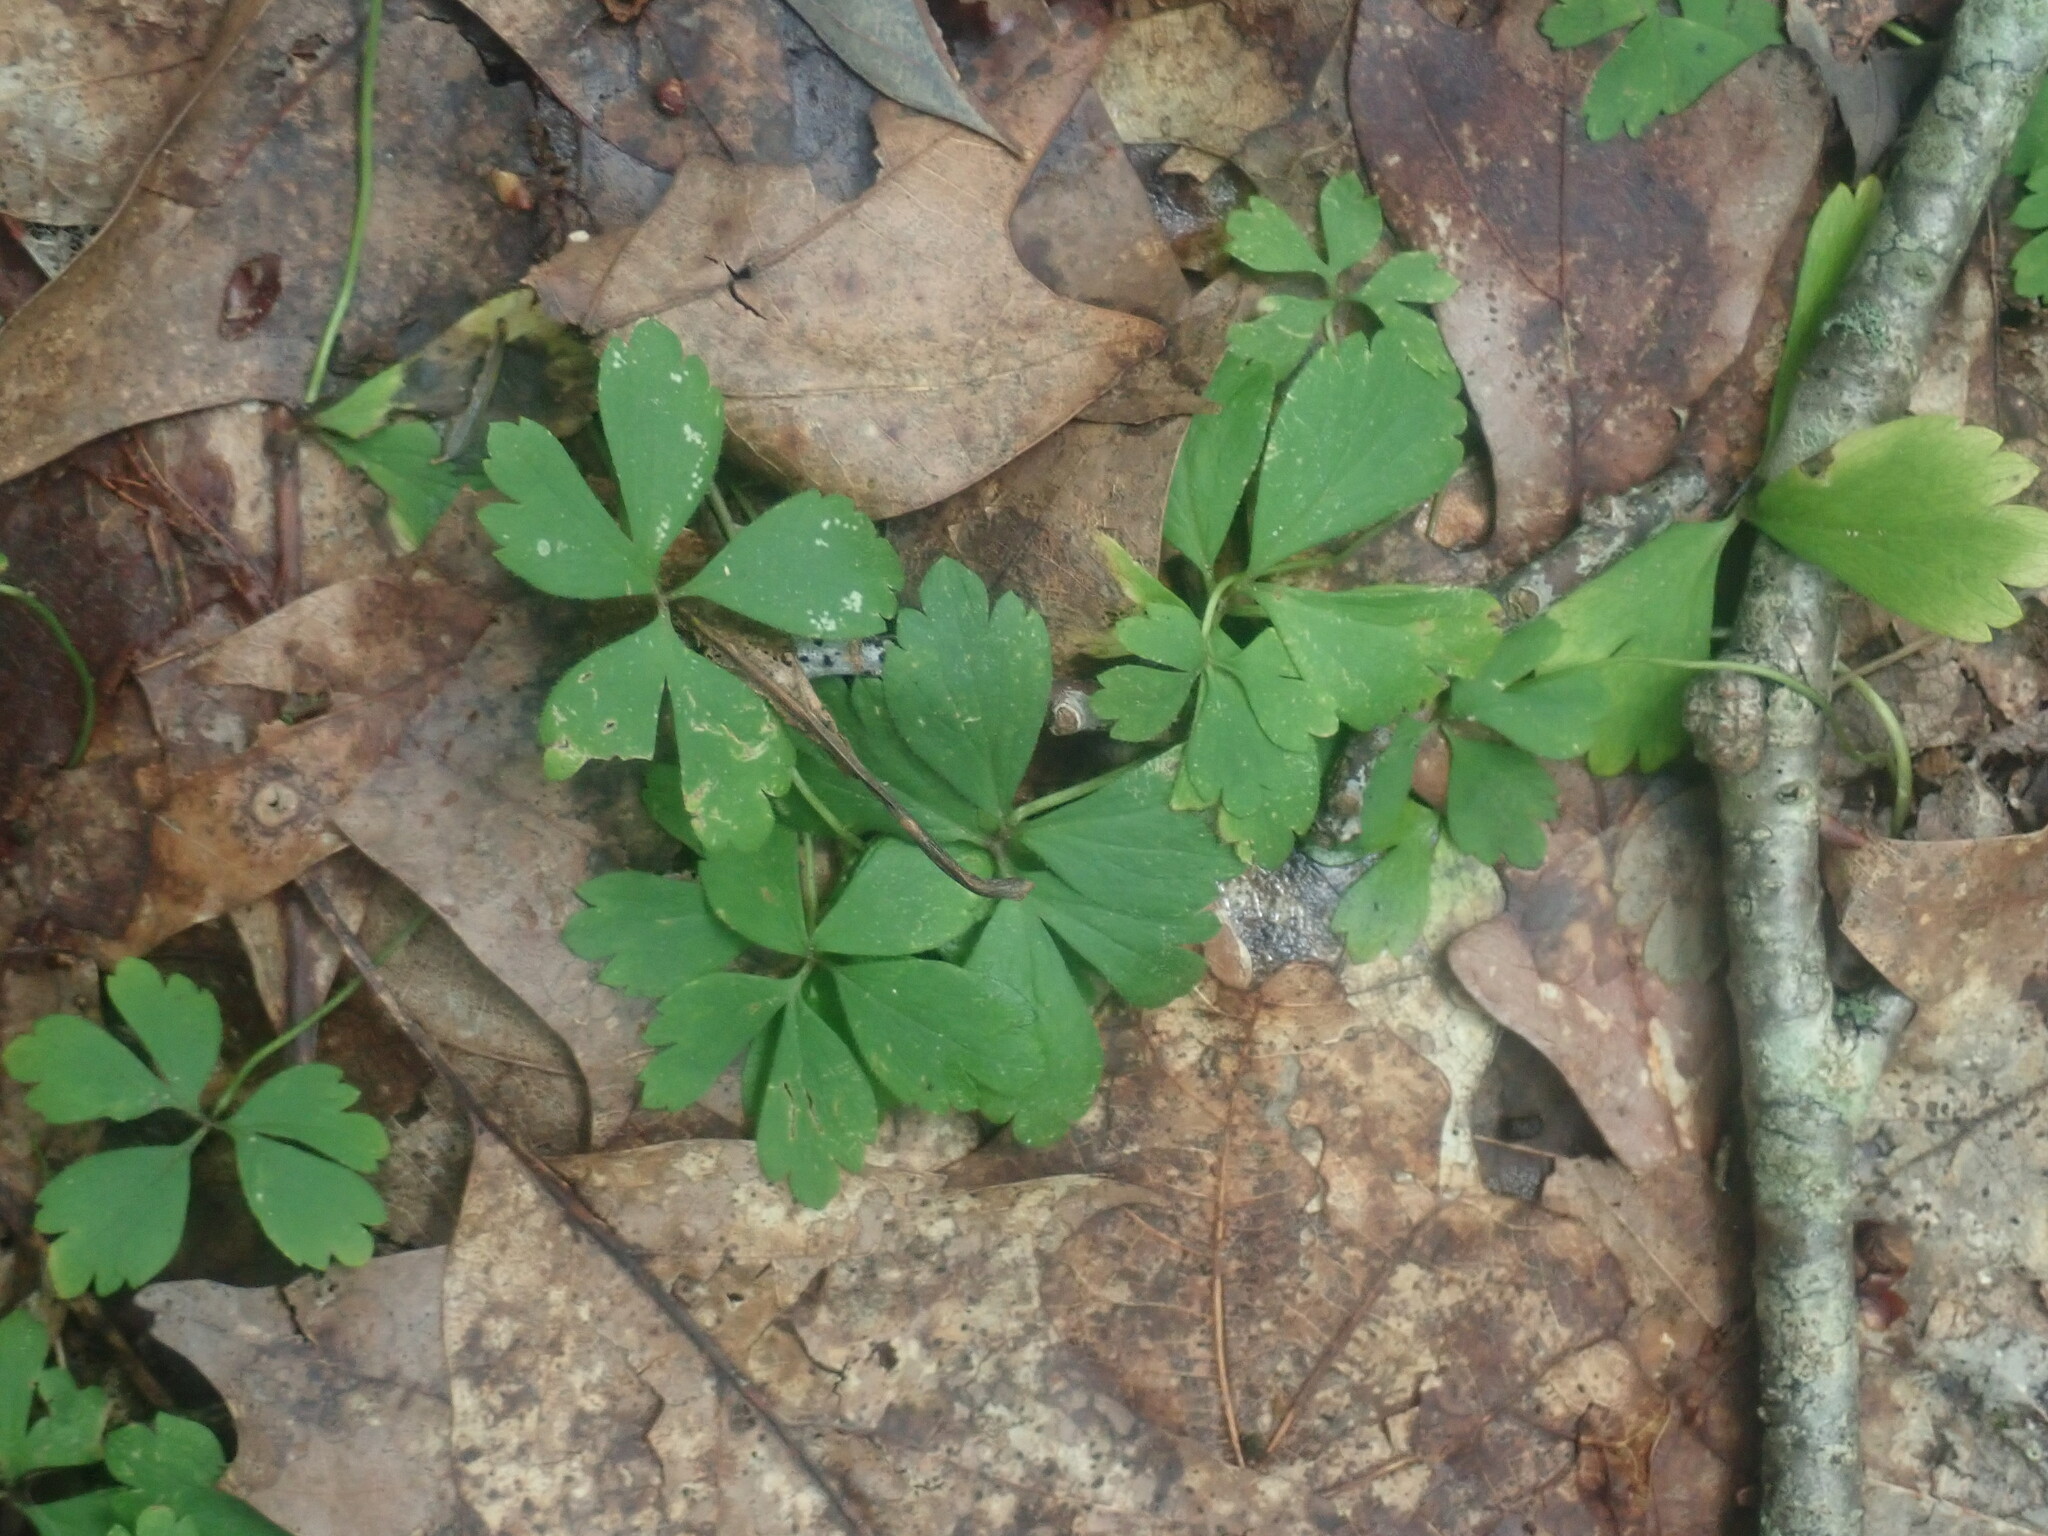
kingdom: Plantae
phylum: Tracheophyta
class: Magnoliopsida
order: Ranunculales
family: Ranunculaceae
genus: Anemone
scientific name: Anemone quinquefolia
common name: Wood anemone
